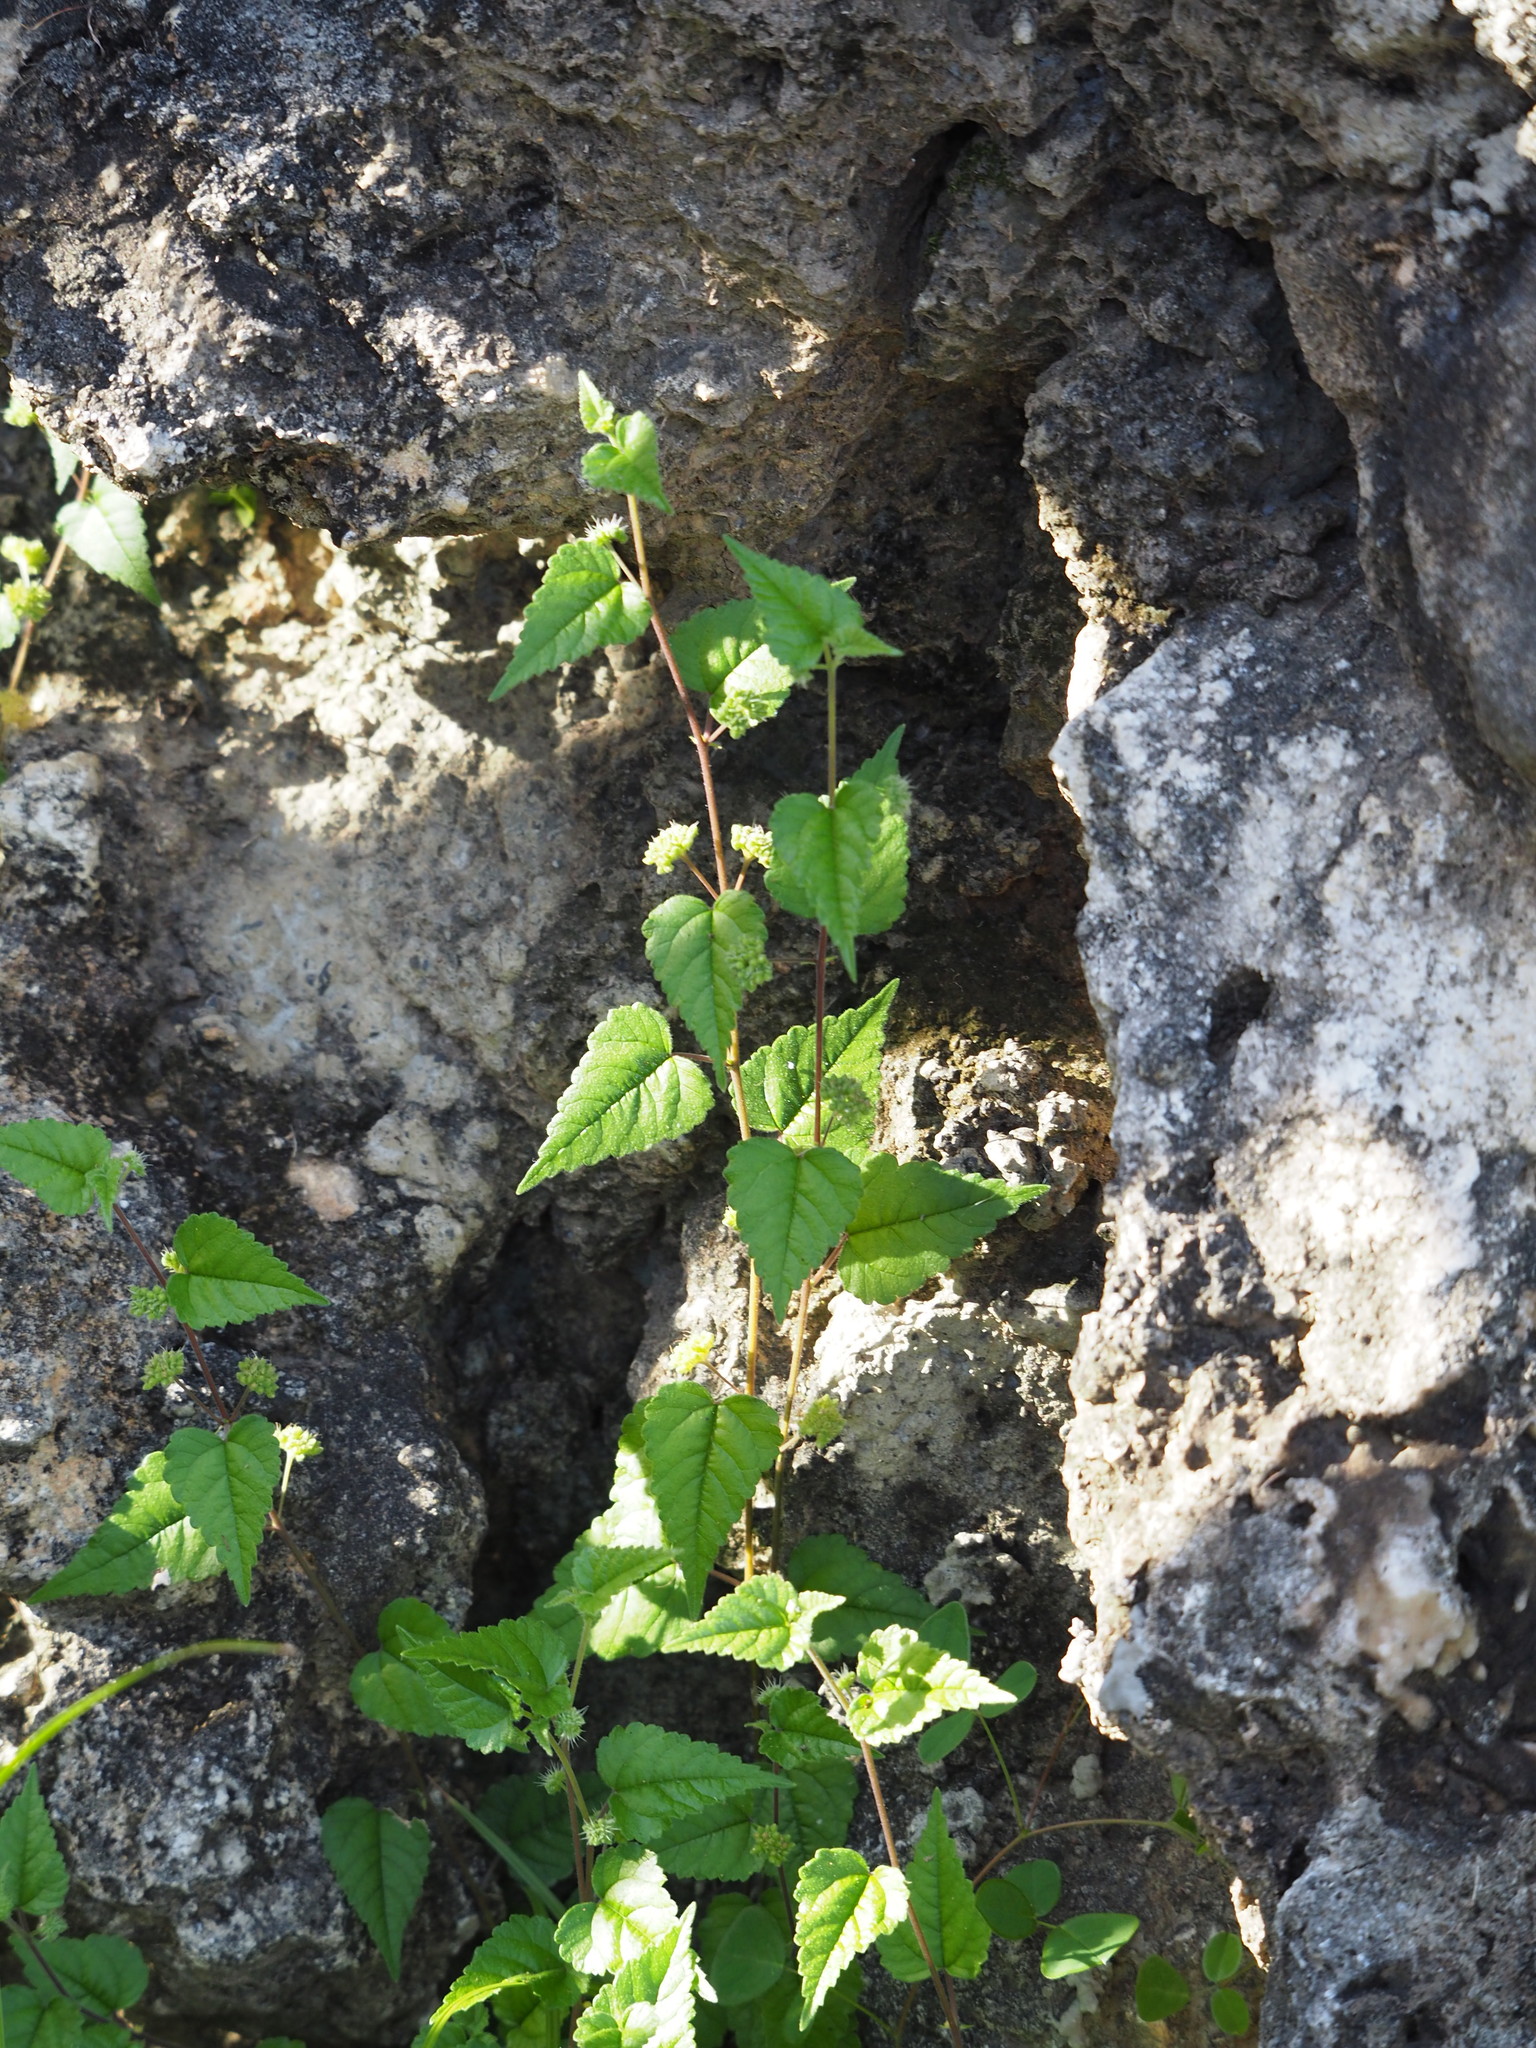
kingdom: Plantae
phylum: Tracheophyta
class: Magnoliopsida
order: Rosales
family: Moraceae
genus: Fatoua
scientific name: Fatoua villosa
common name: Hairy crabweed
